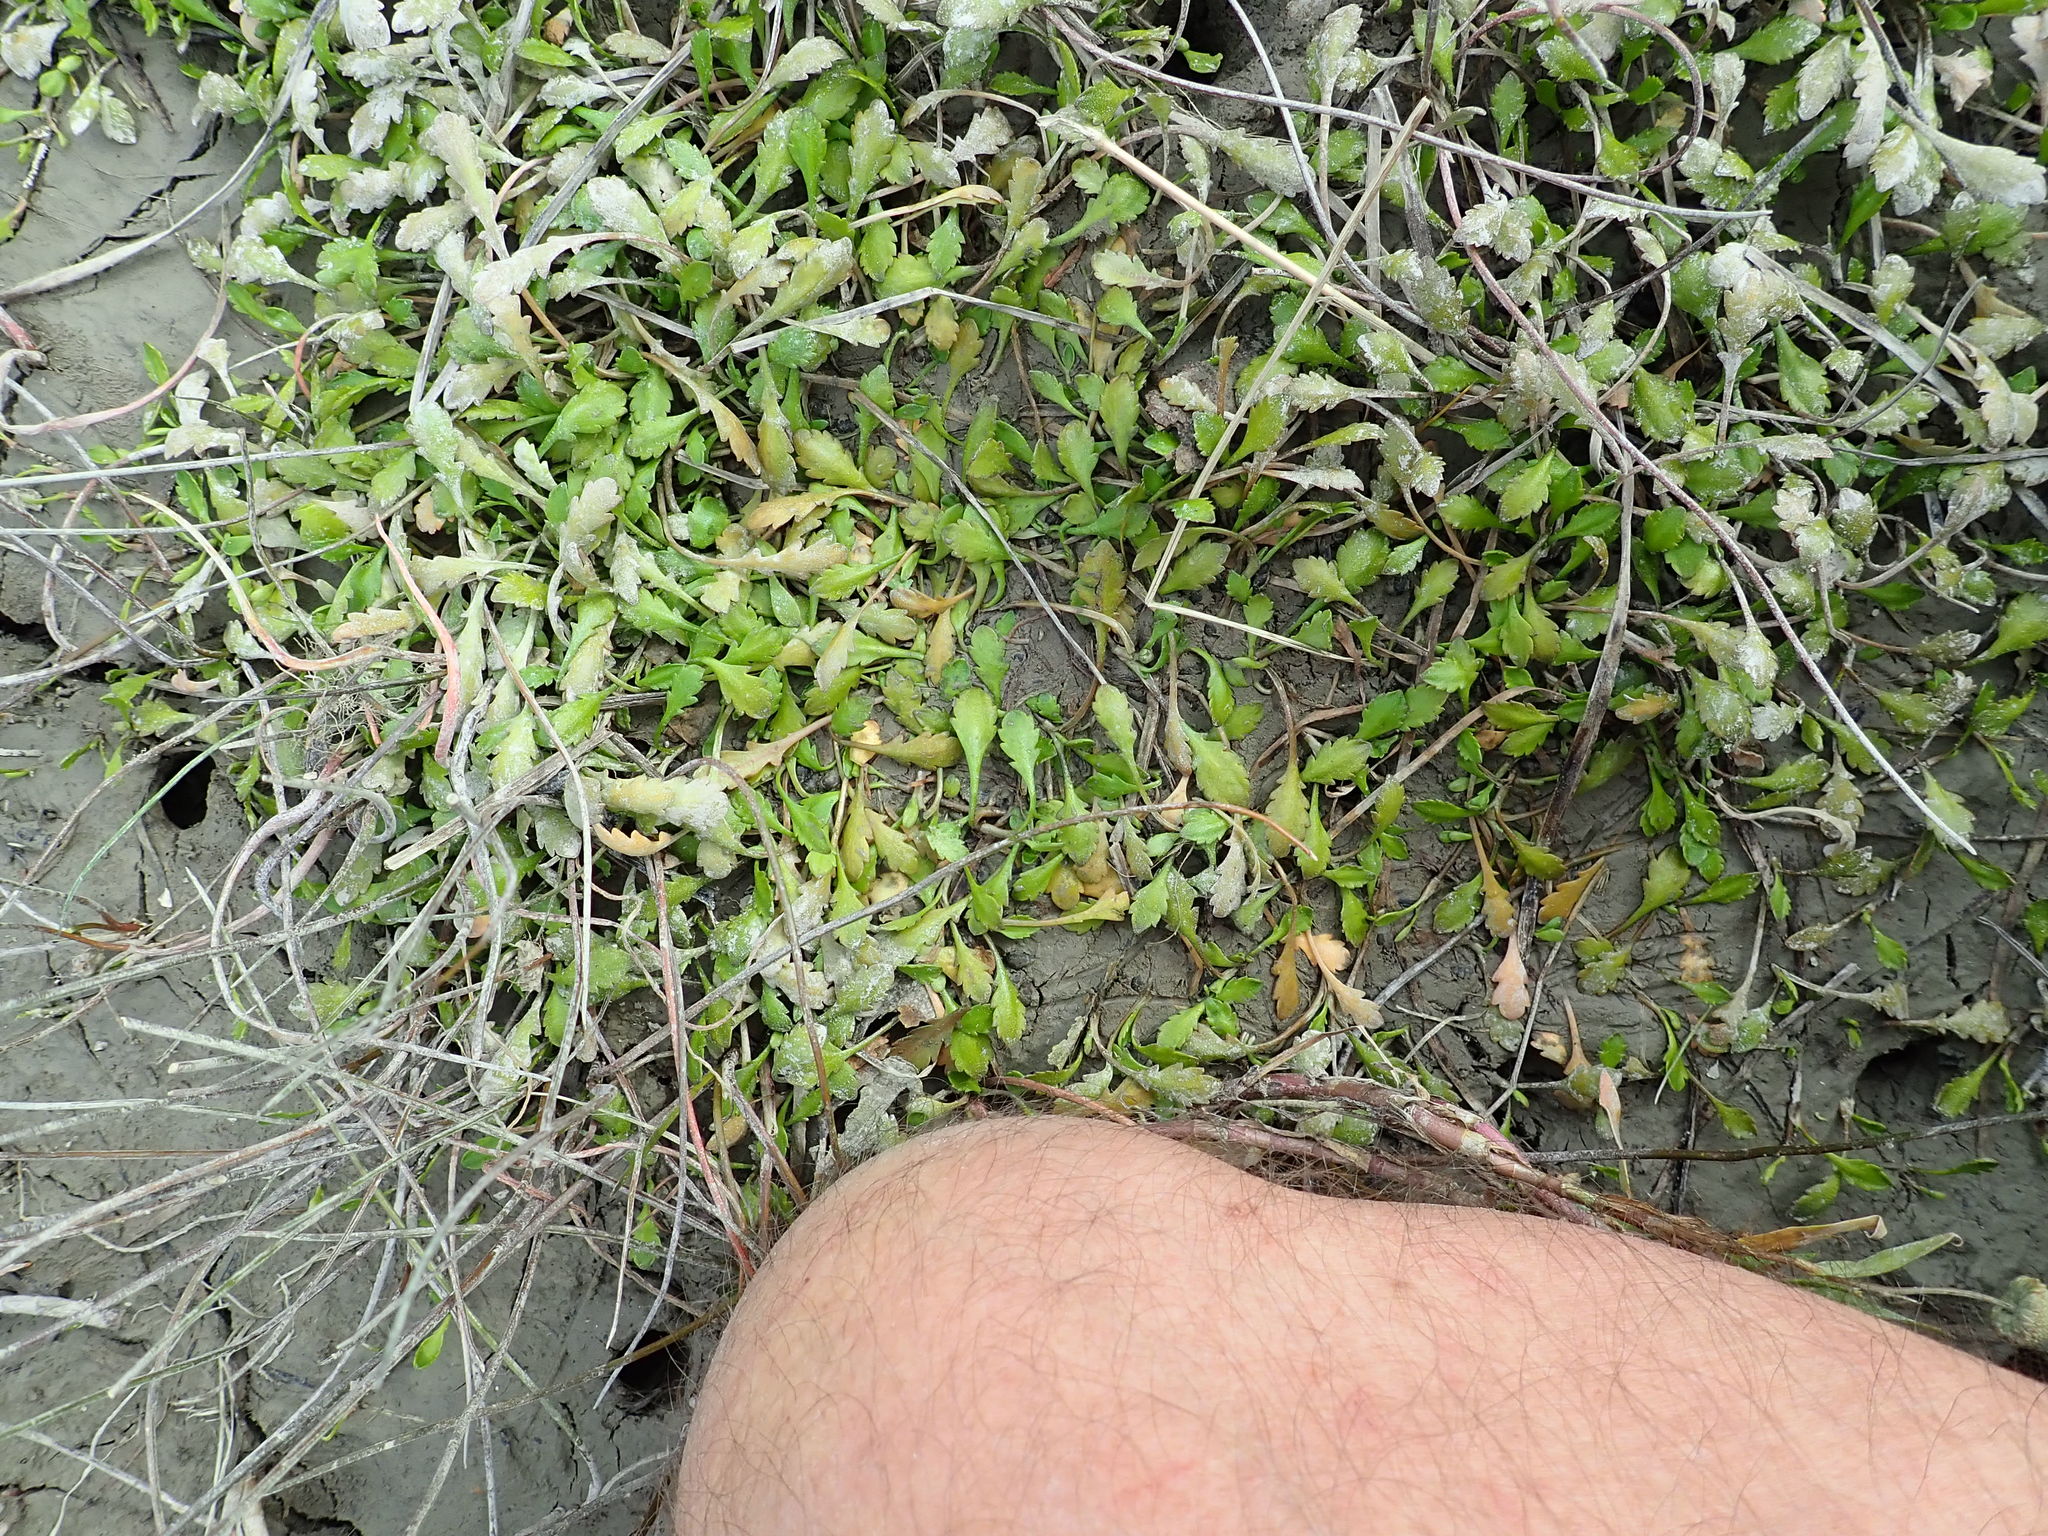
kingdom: Plantae
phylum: Tracheophyta
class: Magnoliopsida
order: Asterales
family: Asteraceae
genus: Leptinella
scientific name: Leptinella dioica
